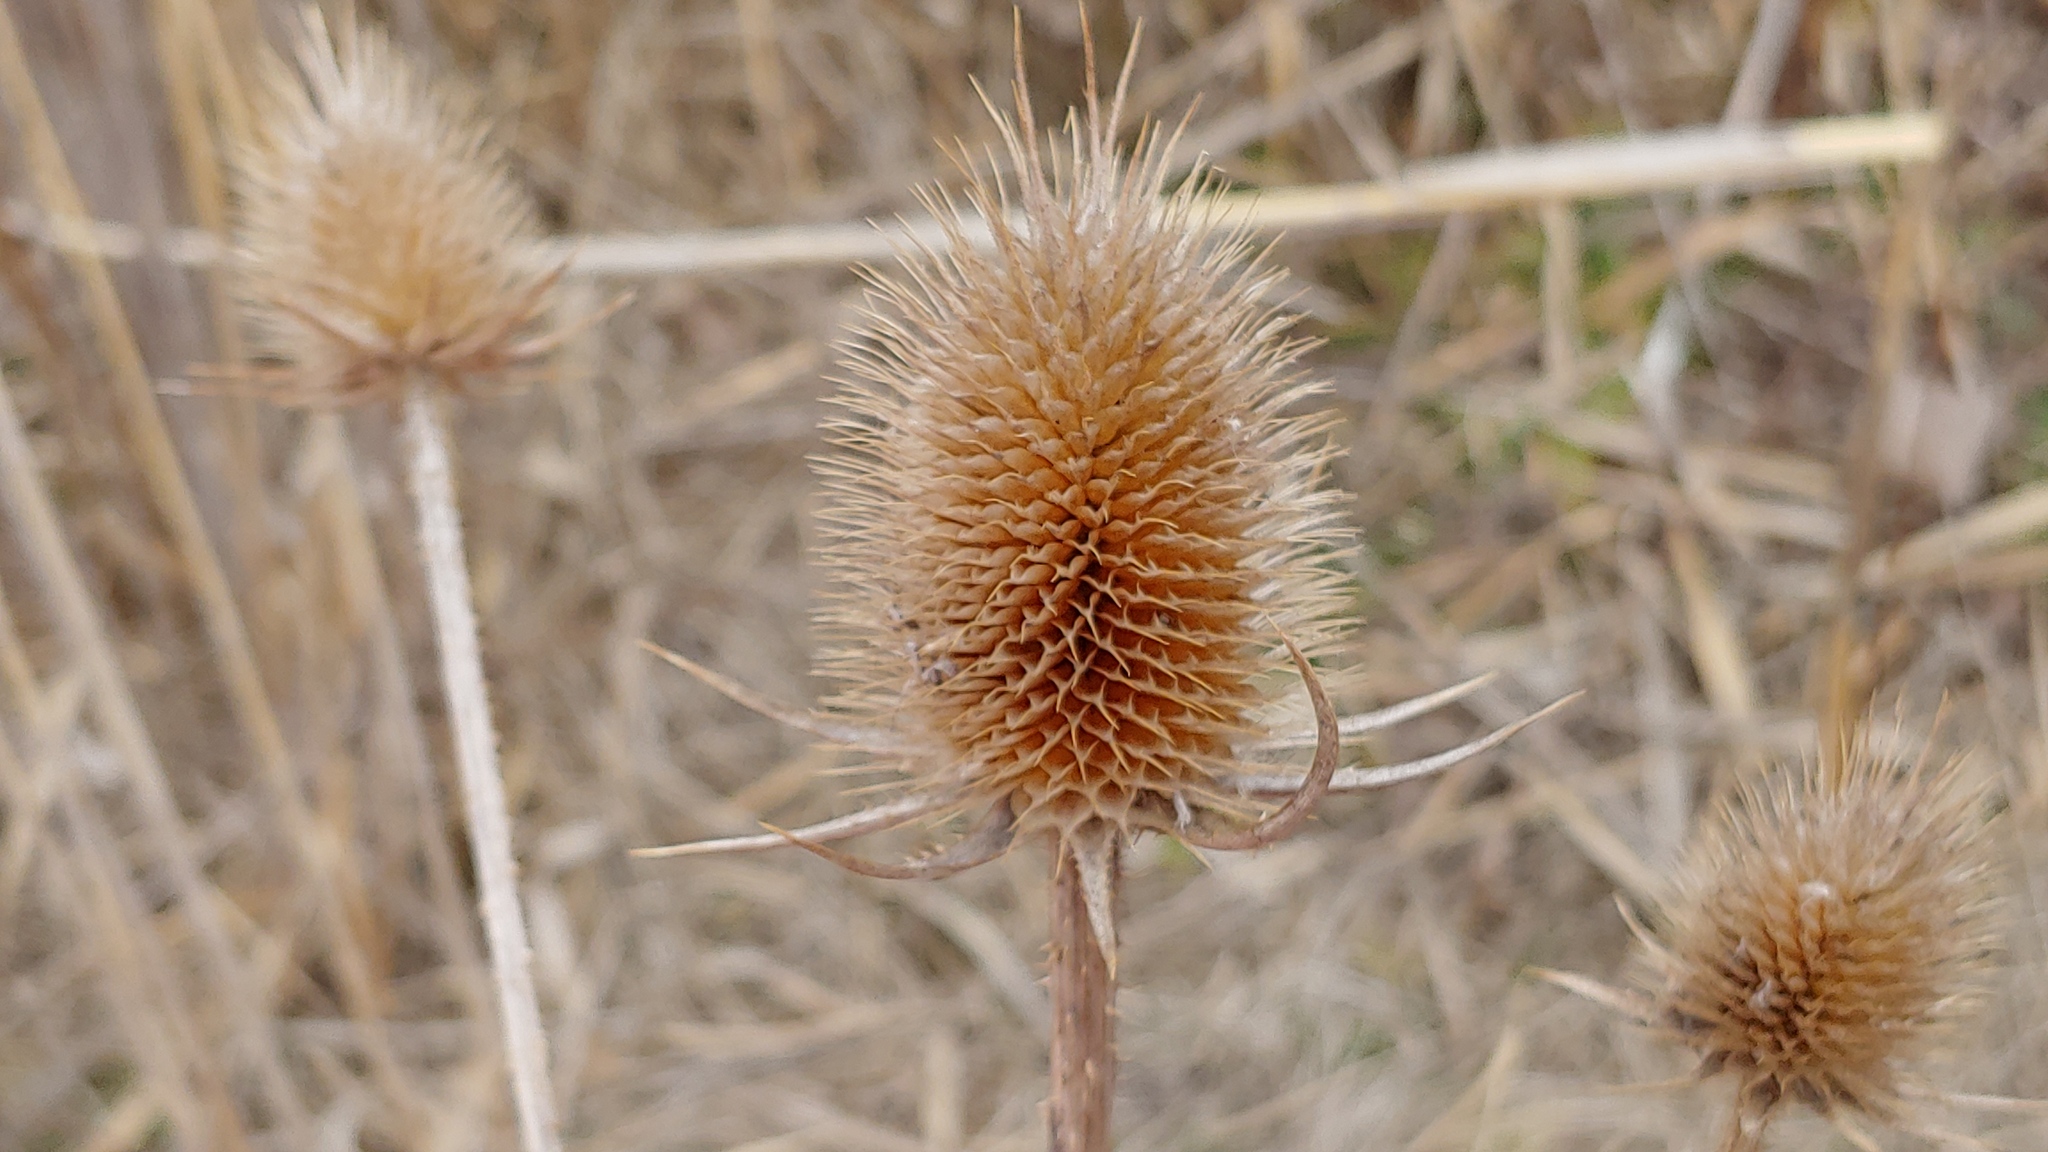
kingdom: Plantae
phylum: Tracheophyta
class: Magnoliopsida
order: Dipsacales
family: Caprifoliaceae
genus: Dipsacus
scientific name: Dipsacus laciniatus
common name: Cut-leaved teasel
